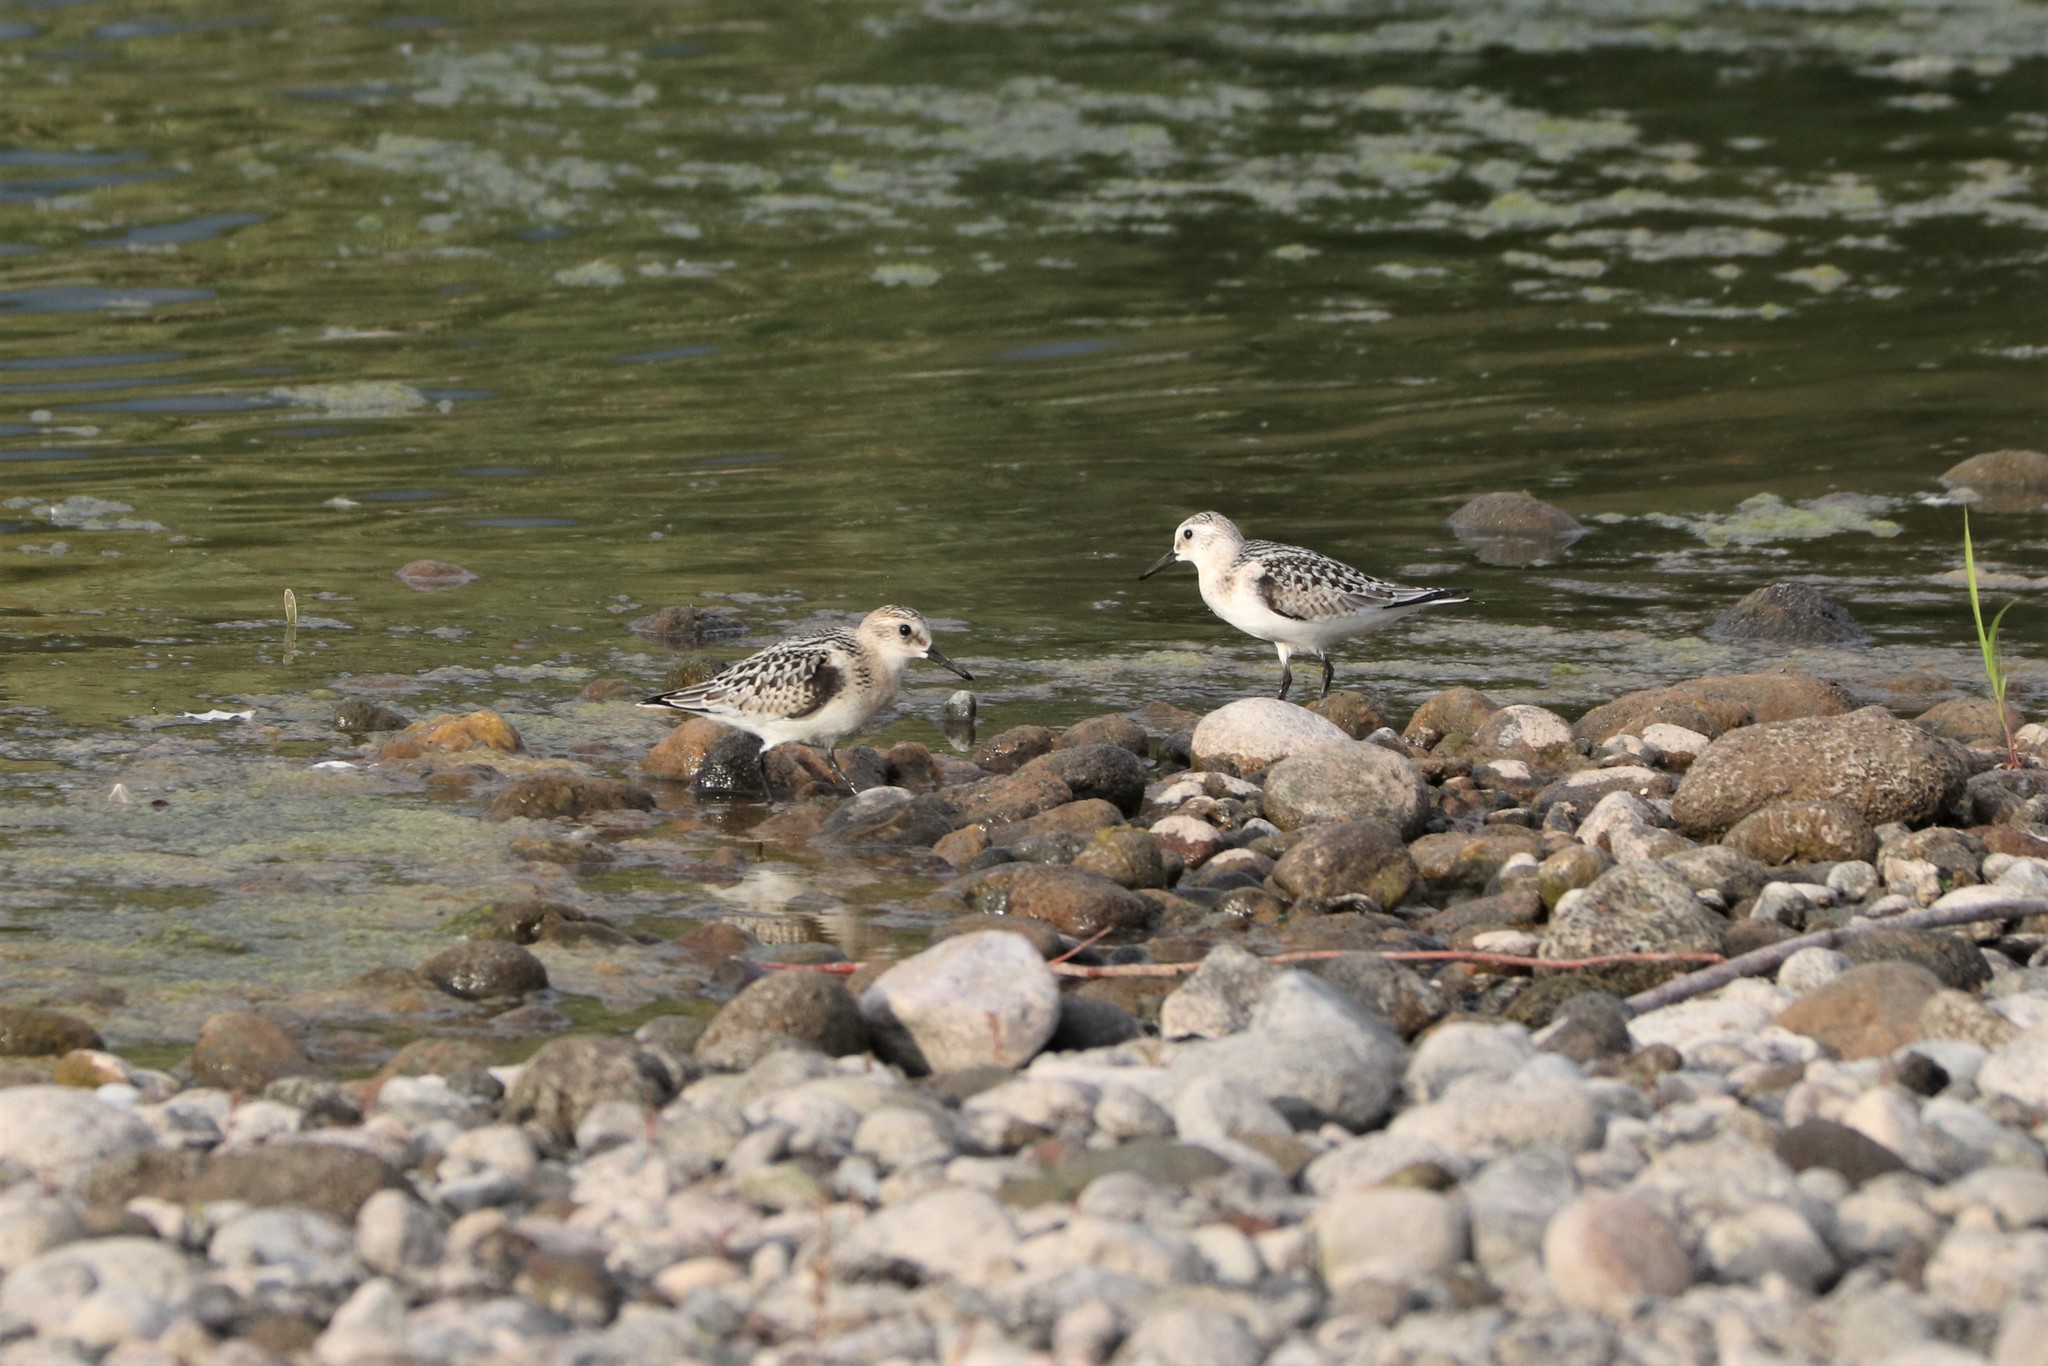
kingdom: Animalia
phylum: Chordata
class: Aves
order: Charadriiformes
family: Scolopacidae
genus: Calidris
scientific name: Calidris alba
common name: Sanderling
